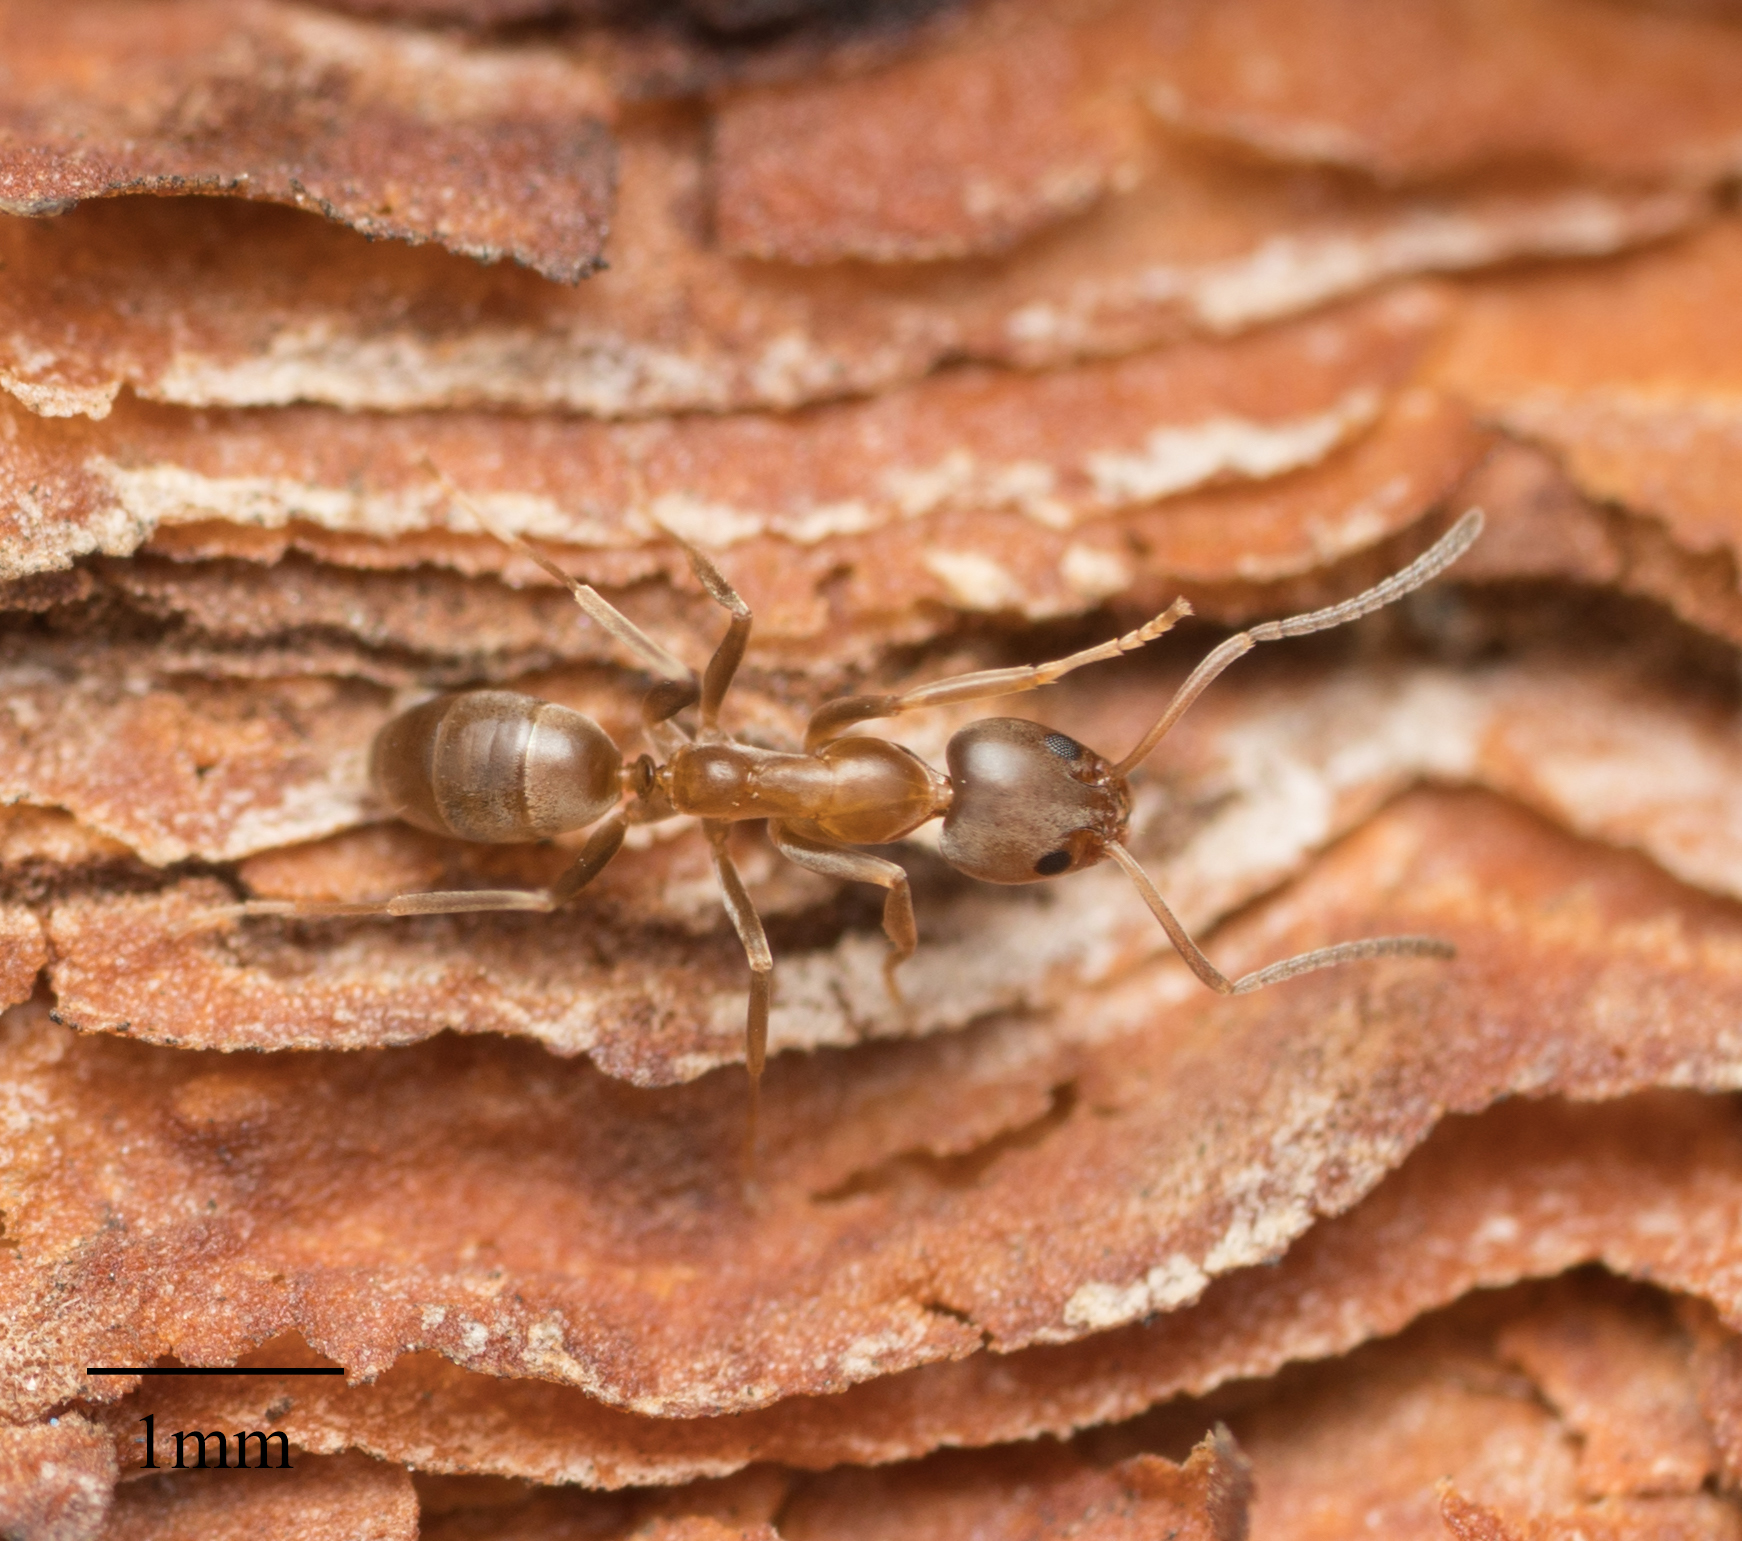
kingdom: Animalia
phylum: Arthropoda
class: Insecta
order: Hymenoptera
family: Formicidae
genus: Linepithema
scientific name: Linepithema humile
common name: Argentine ant
